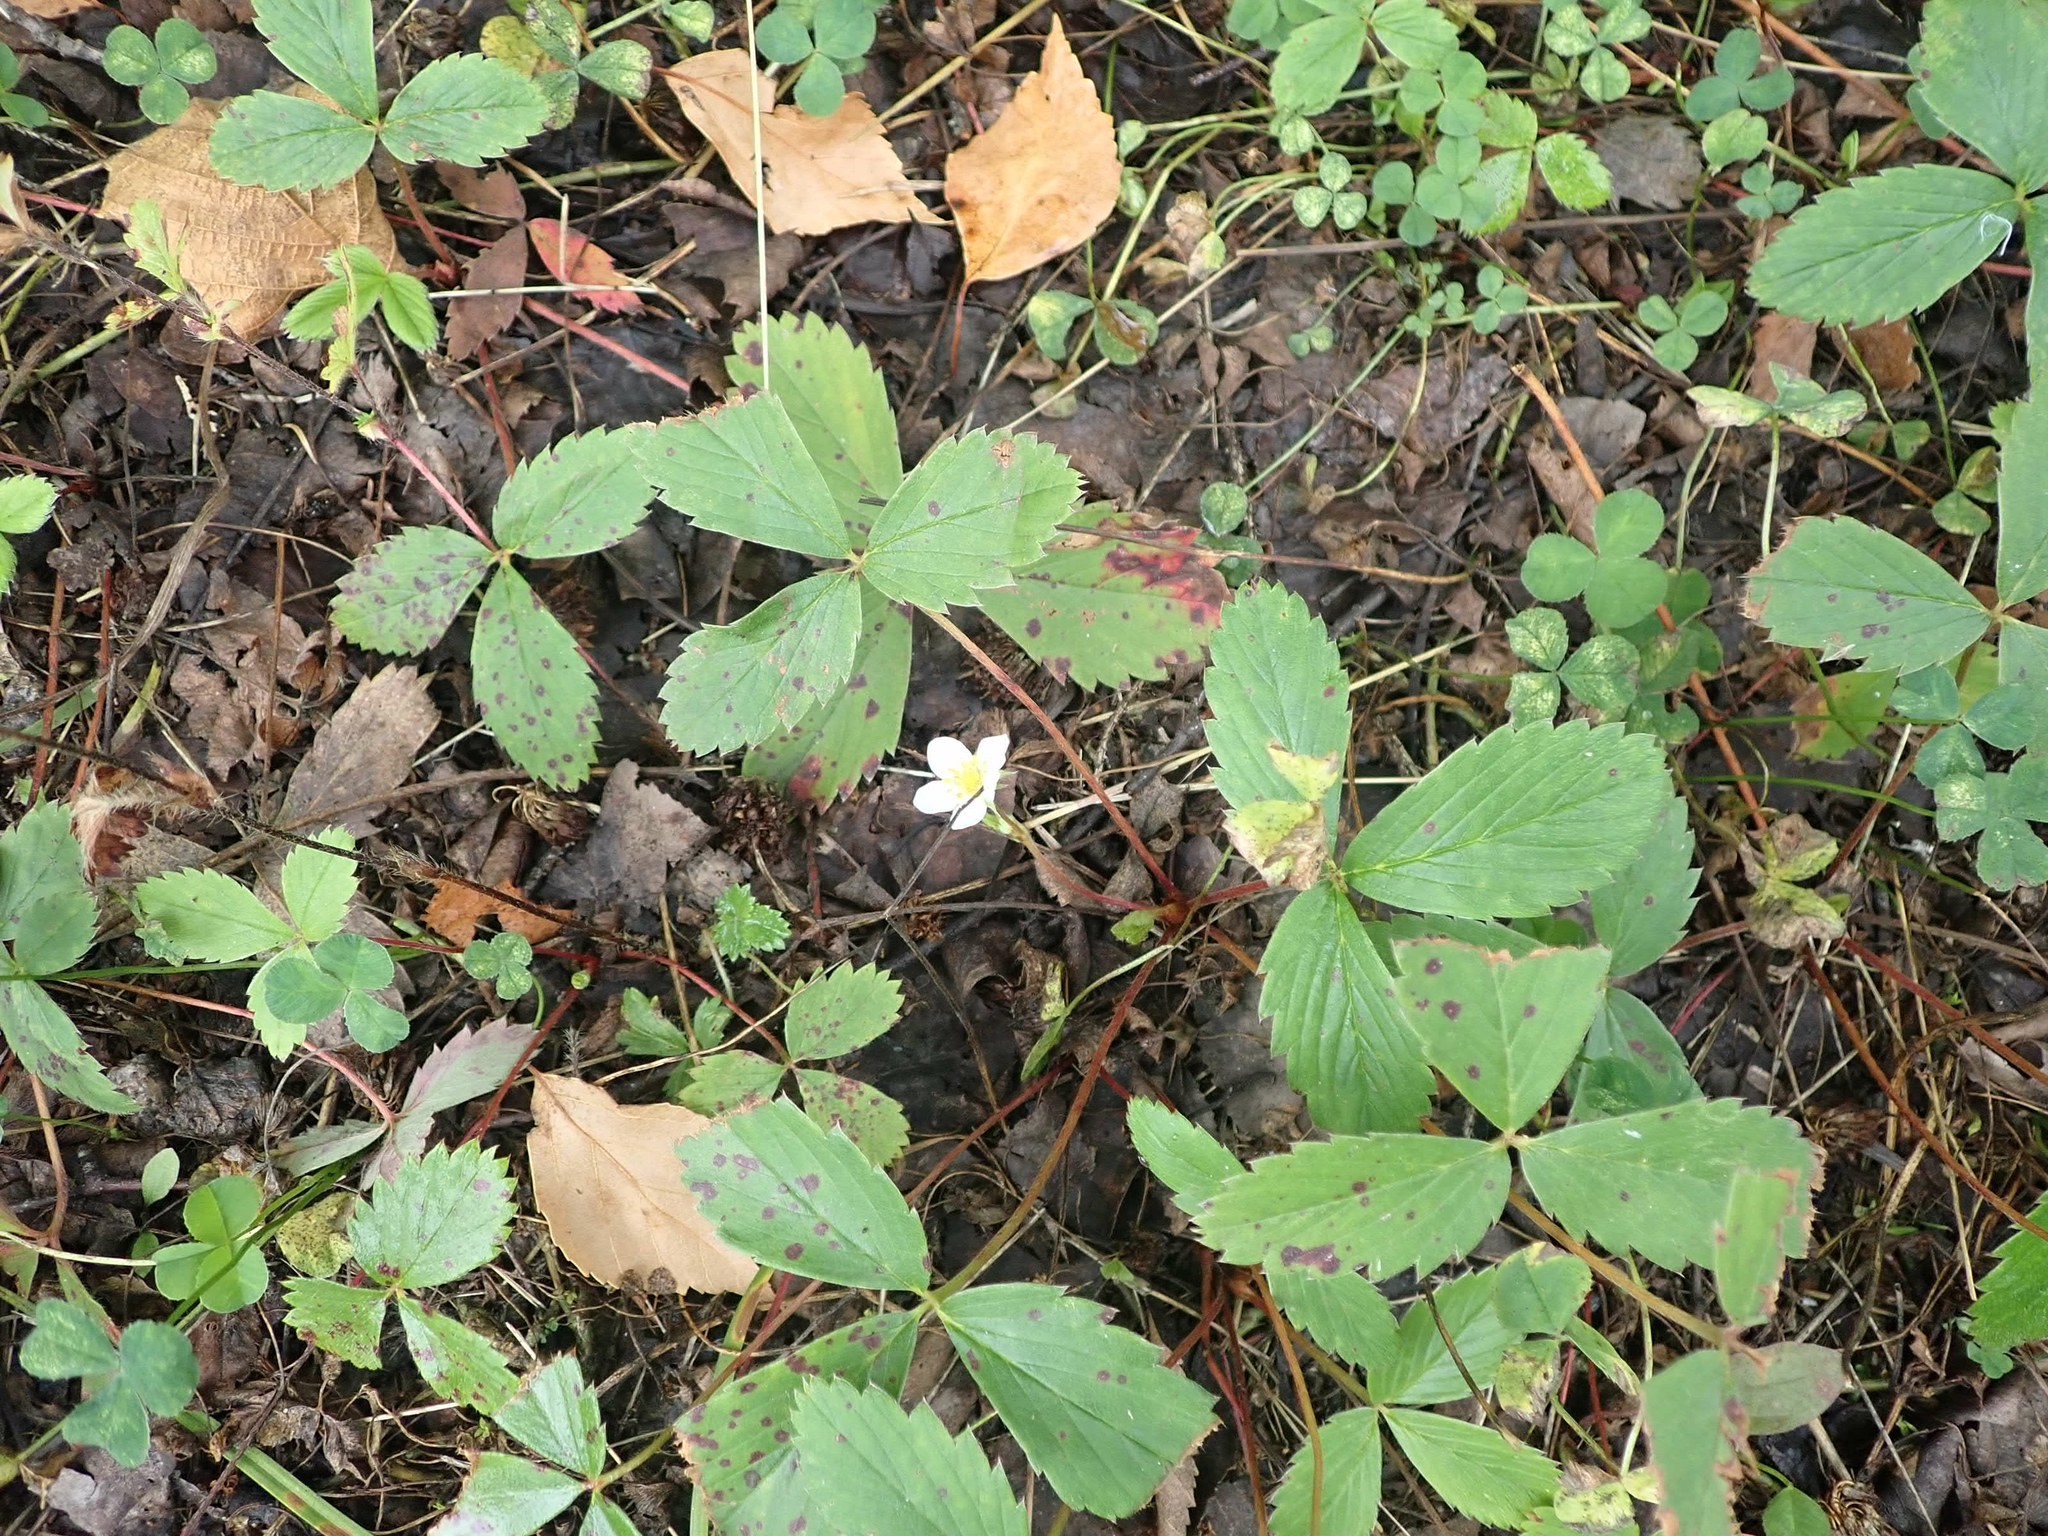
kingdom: Plantae
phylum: Tracheophyta
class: Magnoliopsida
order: Rosales
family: Rosaceae
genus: Fragaria
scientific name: Fragaria virginiana
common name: Thickleaved wild strawberry
